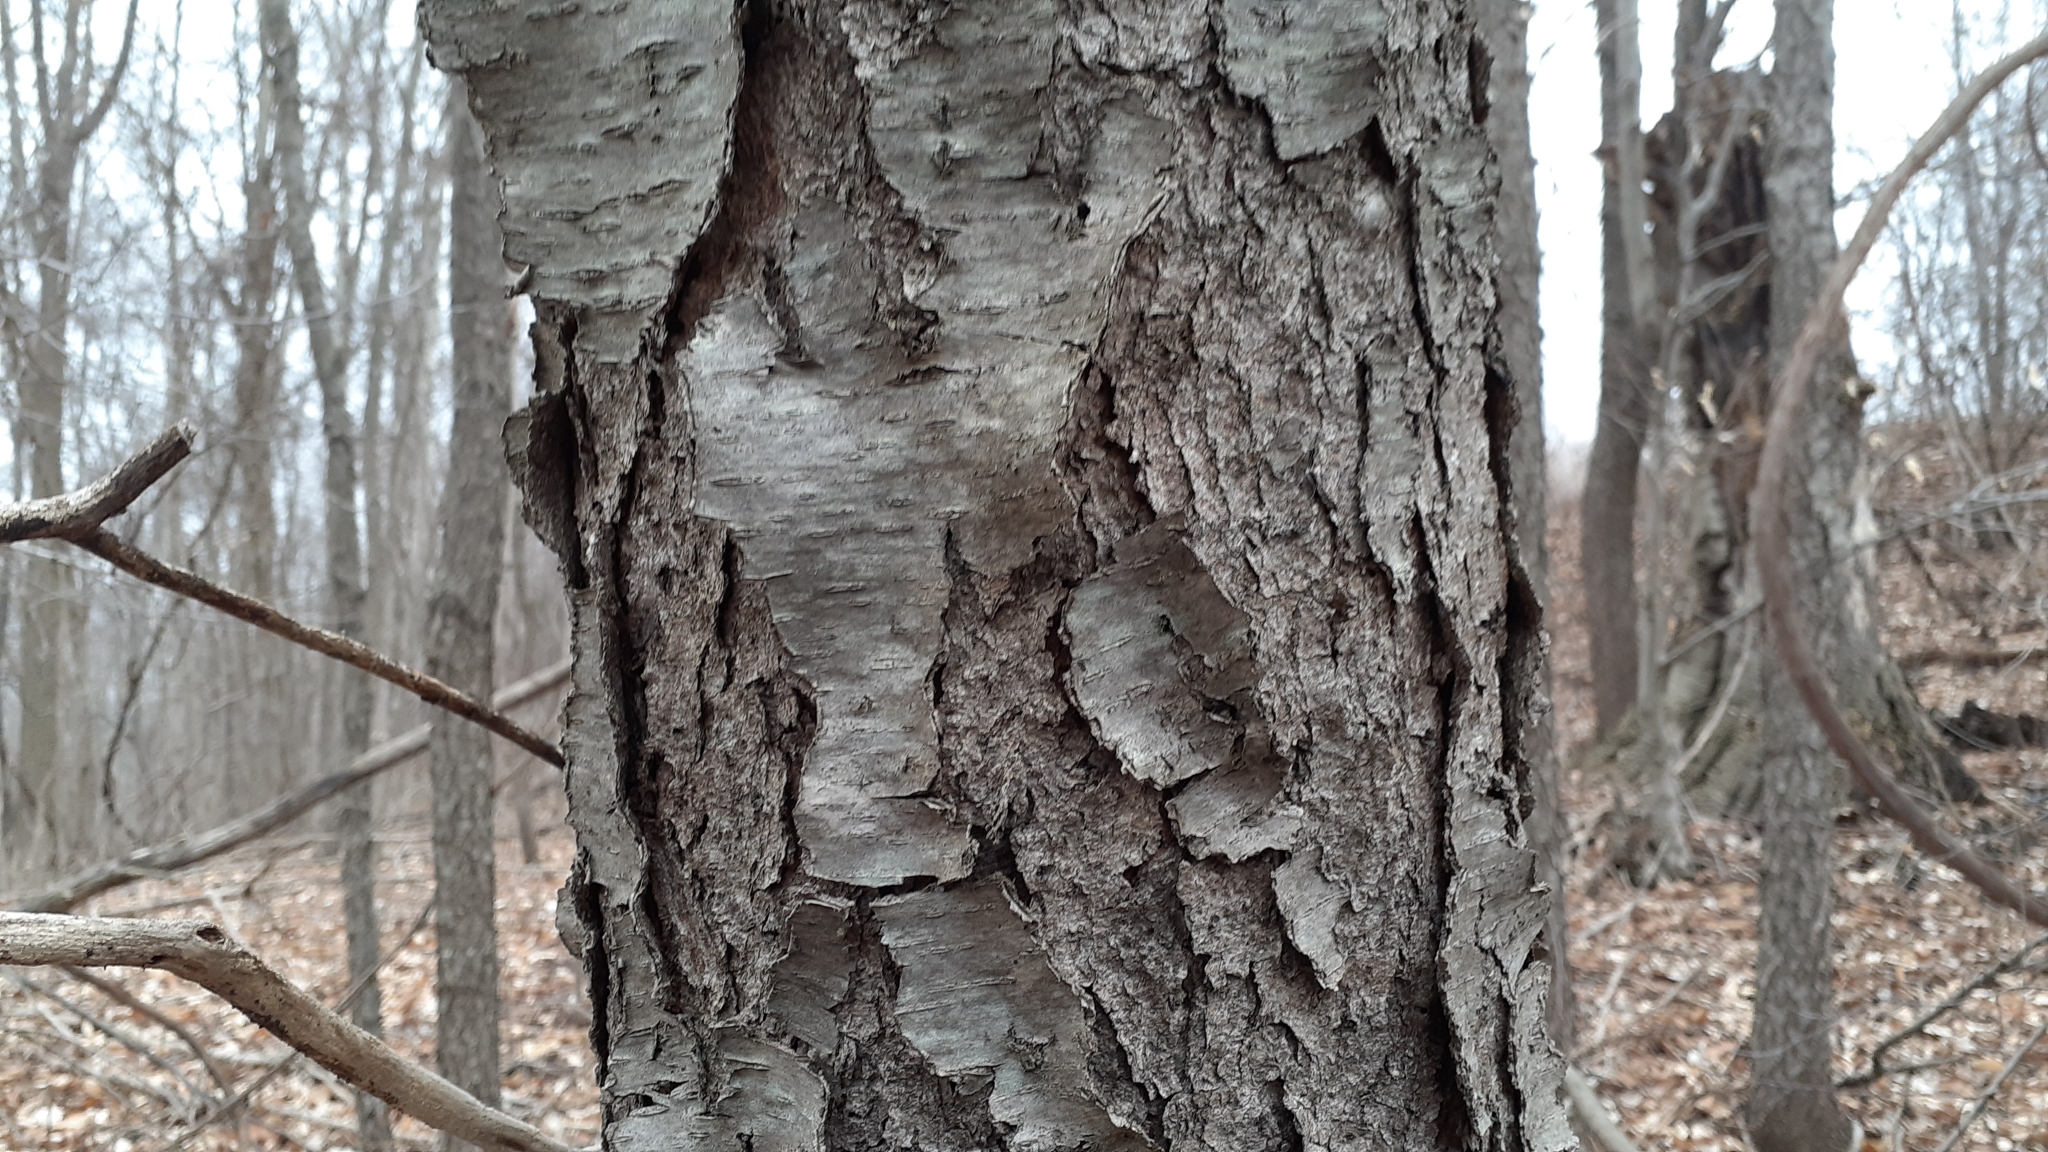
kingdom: Plantae
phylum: Tracheophyta
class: Magnoliopsida
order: Rosales
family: Rosaceae
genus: Prunus
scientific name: Prunus serotina
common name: Black cherry
